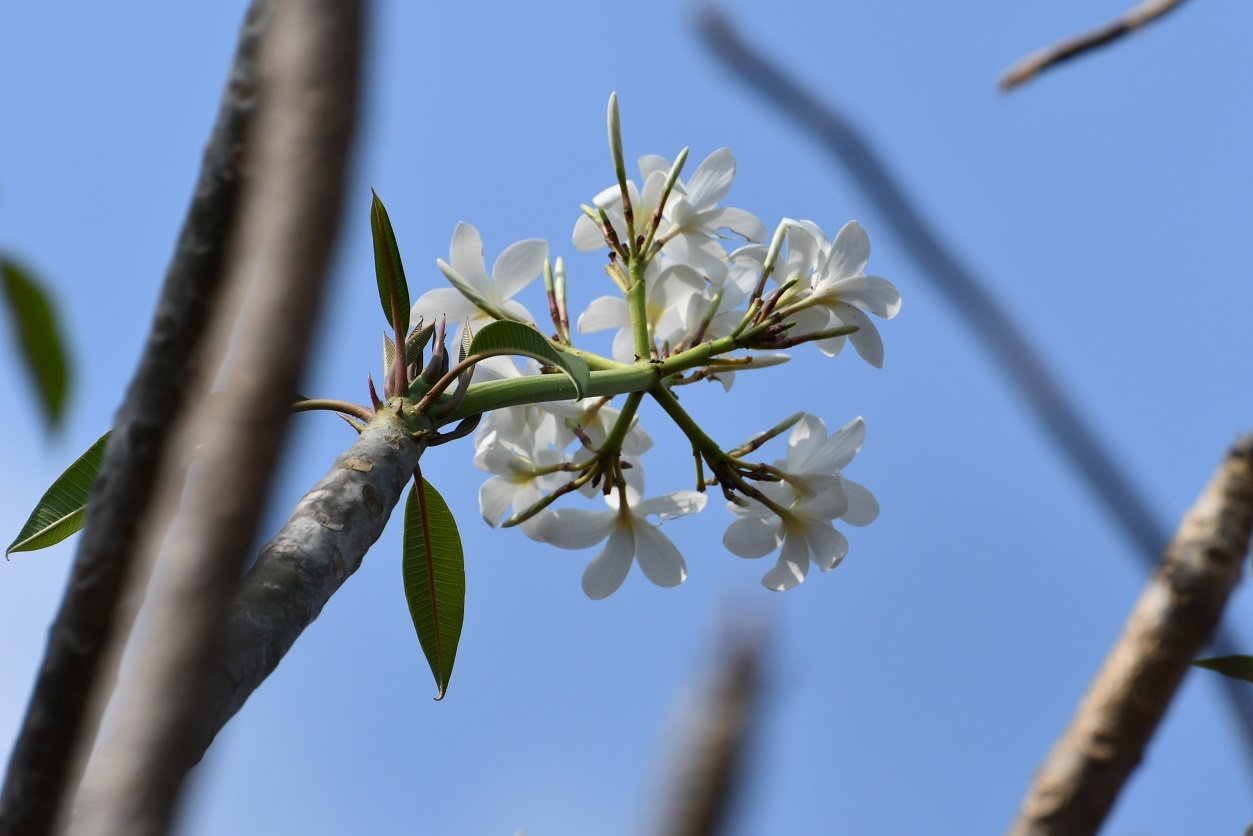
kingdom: Plantae
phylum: Tracheophyta
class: Magnoliopsida
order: Gentianales
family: Apocynaceae
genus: Plumeria
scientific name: Plumeria rubra
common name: Pagoda-tree
